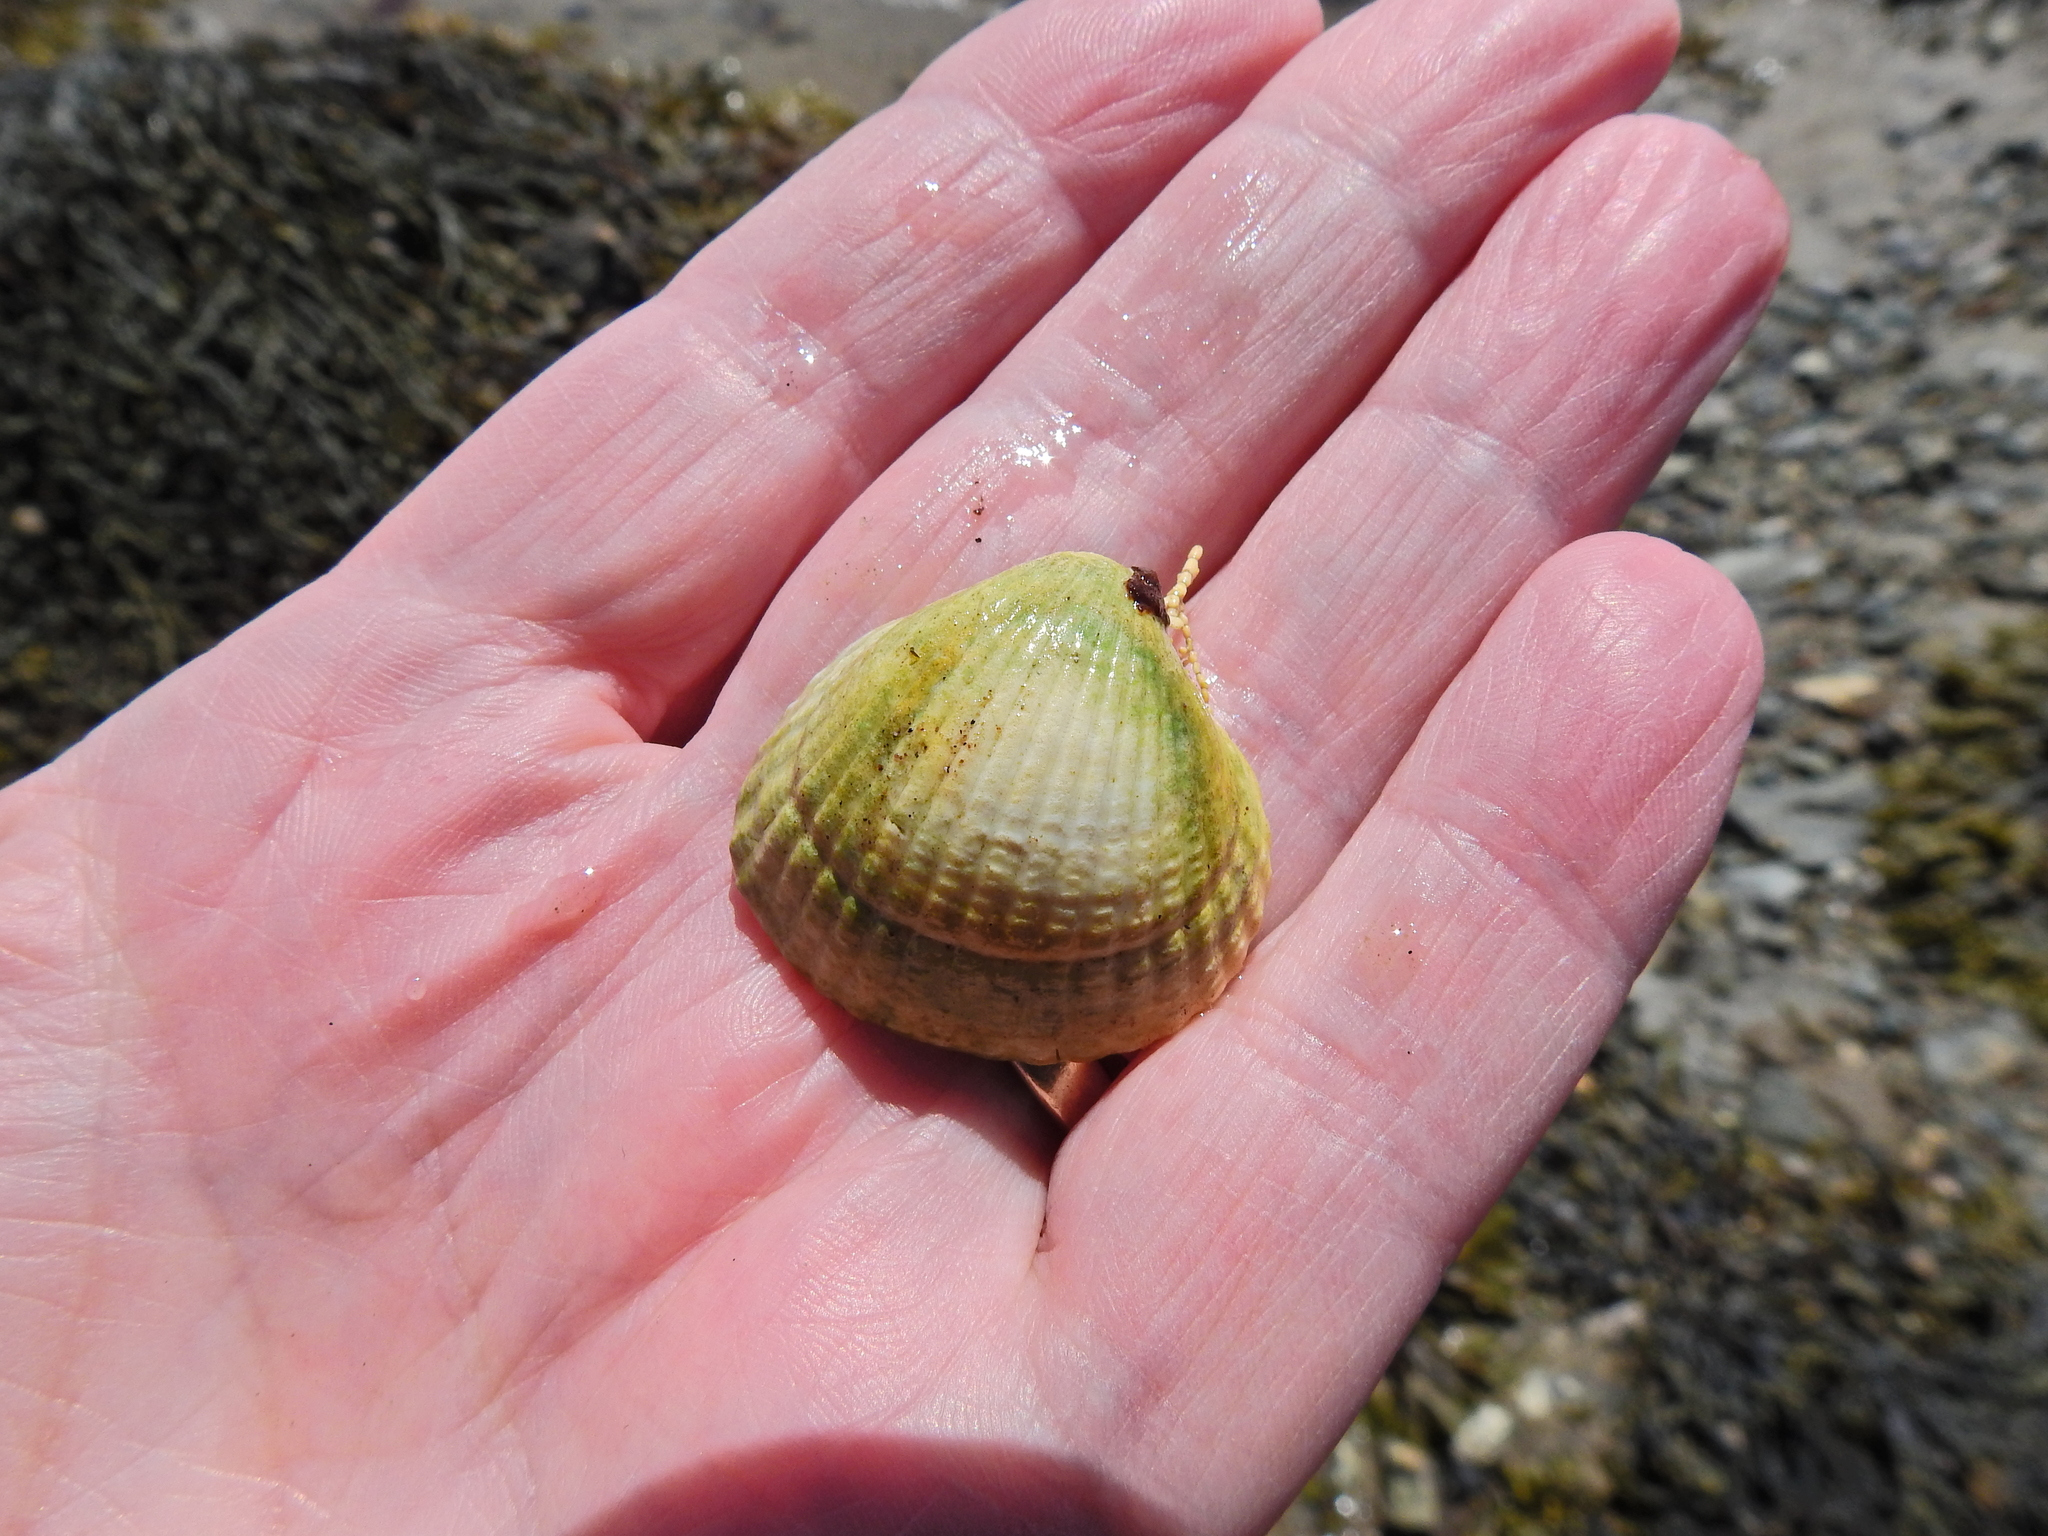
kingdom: Animalia
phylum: Mollusca
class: Bivalvia
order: Cardiida
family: Cardiidae
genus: Cerastoderma
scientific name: Cerastoderma edule
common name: Common cockle
